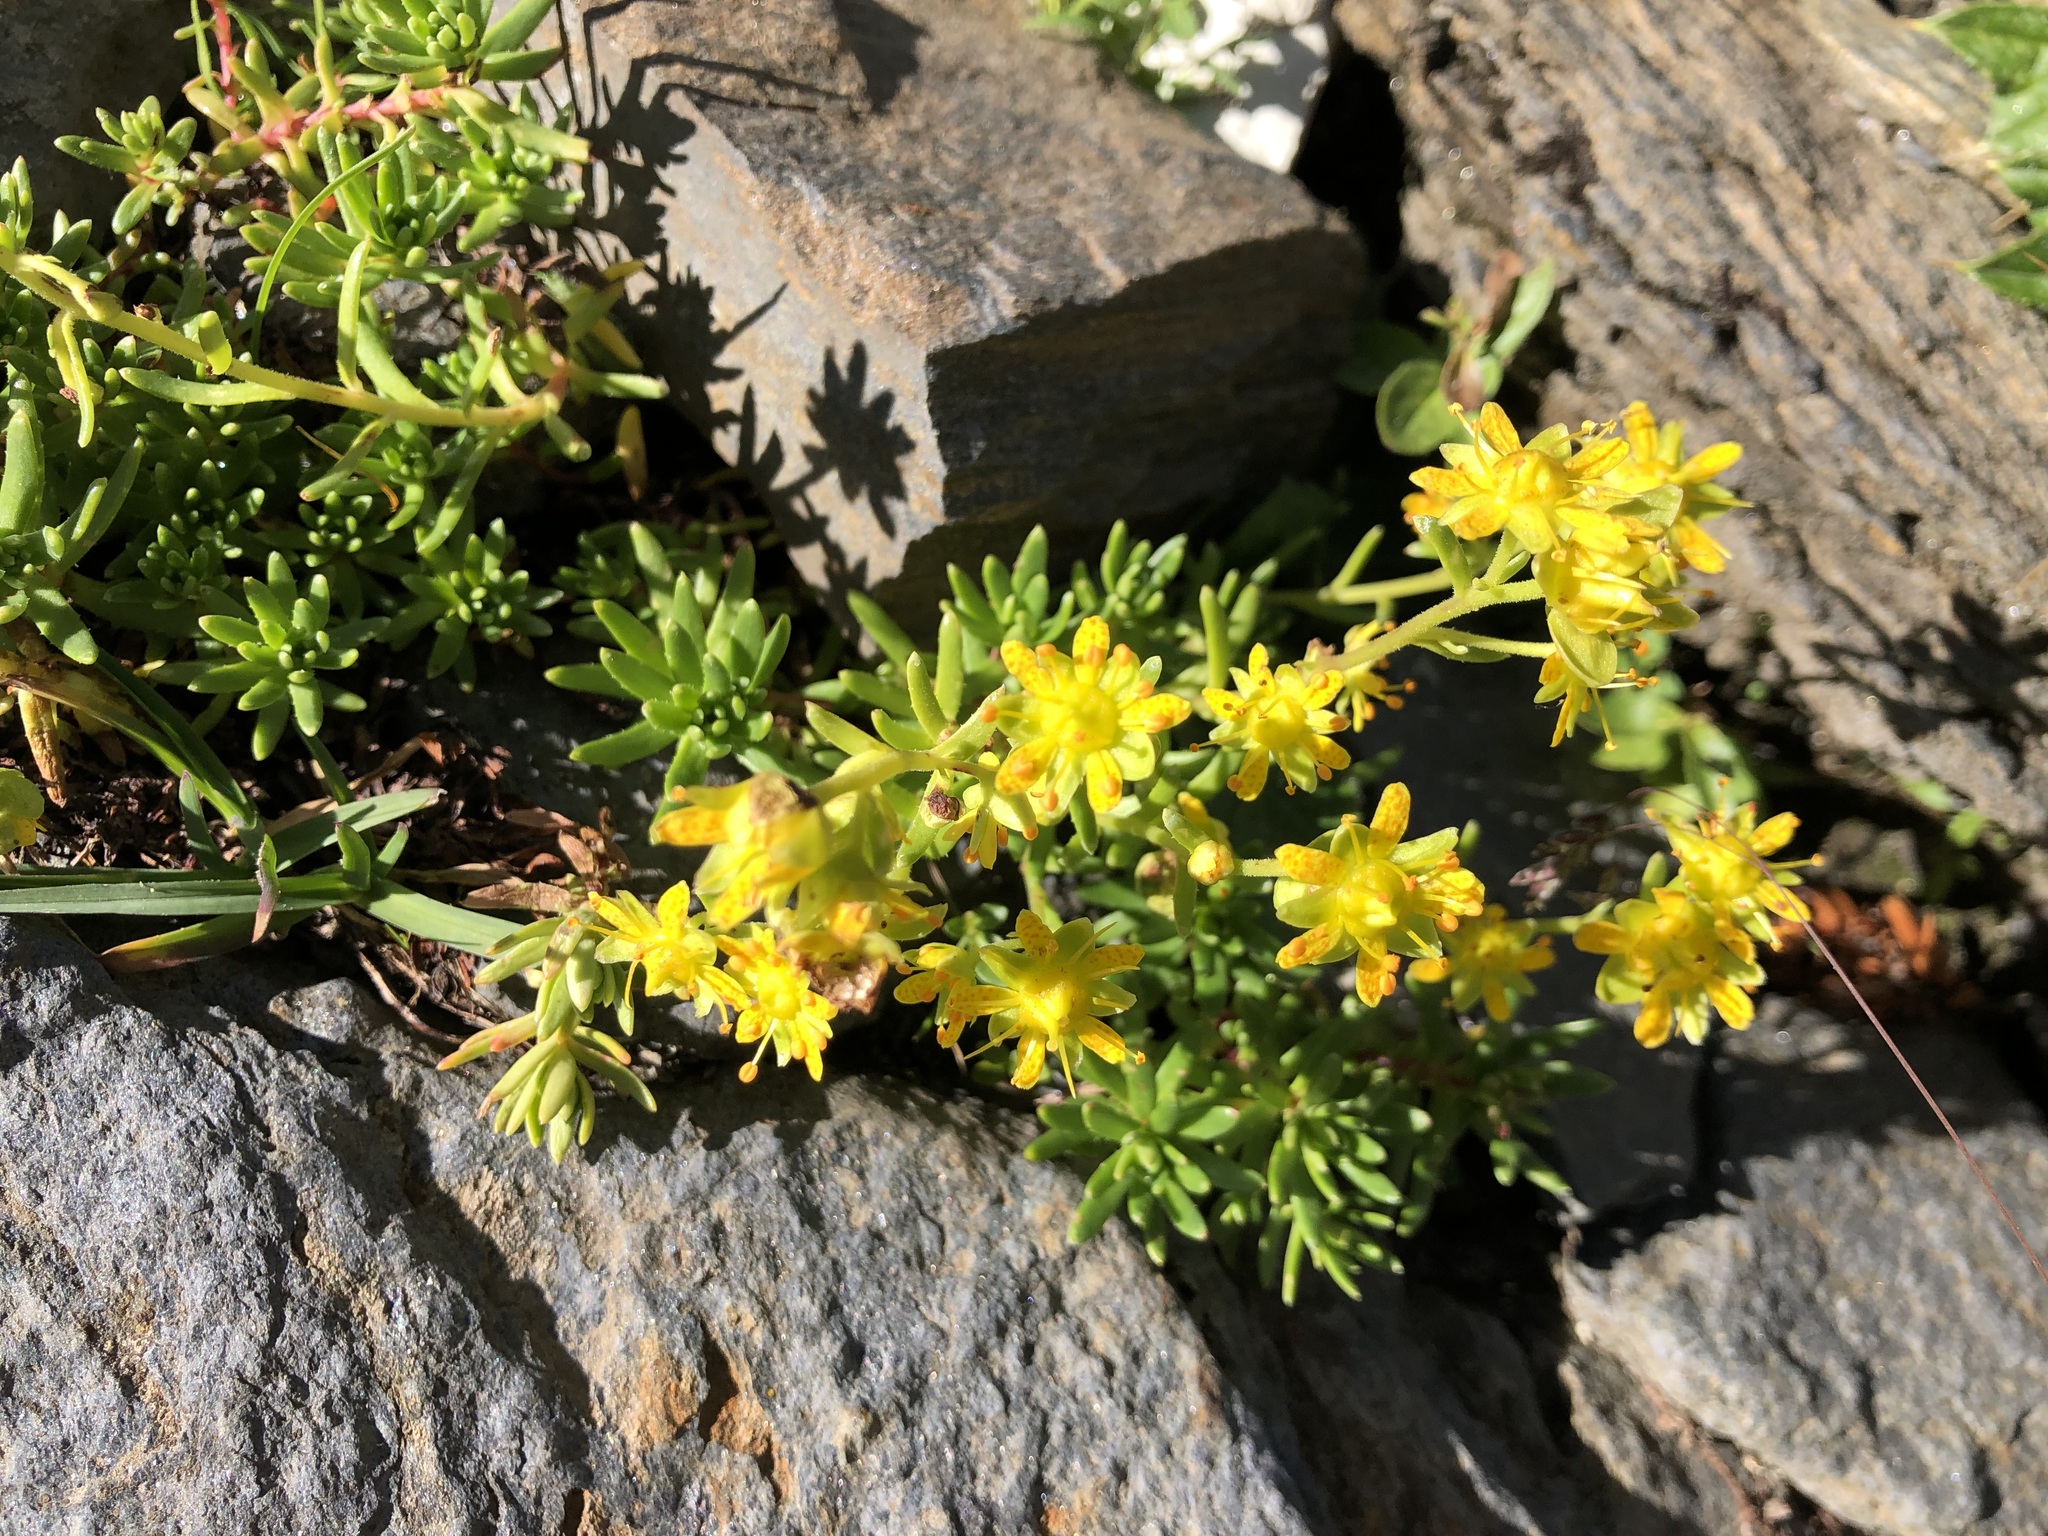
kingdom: Plantae
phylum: Tracheophyta
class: Magnoliopsida
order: Saxifragales
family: Saxifragaceae
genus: Saxifraga
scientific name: Saxifraga aizoides
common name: Yellow mountain saxifrage
